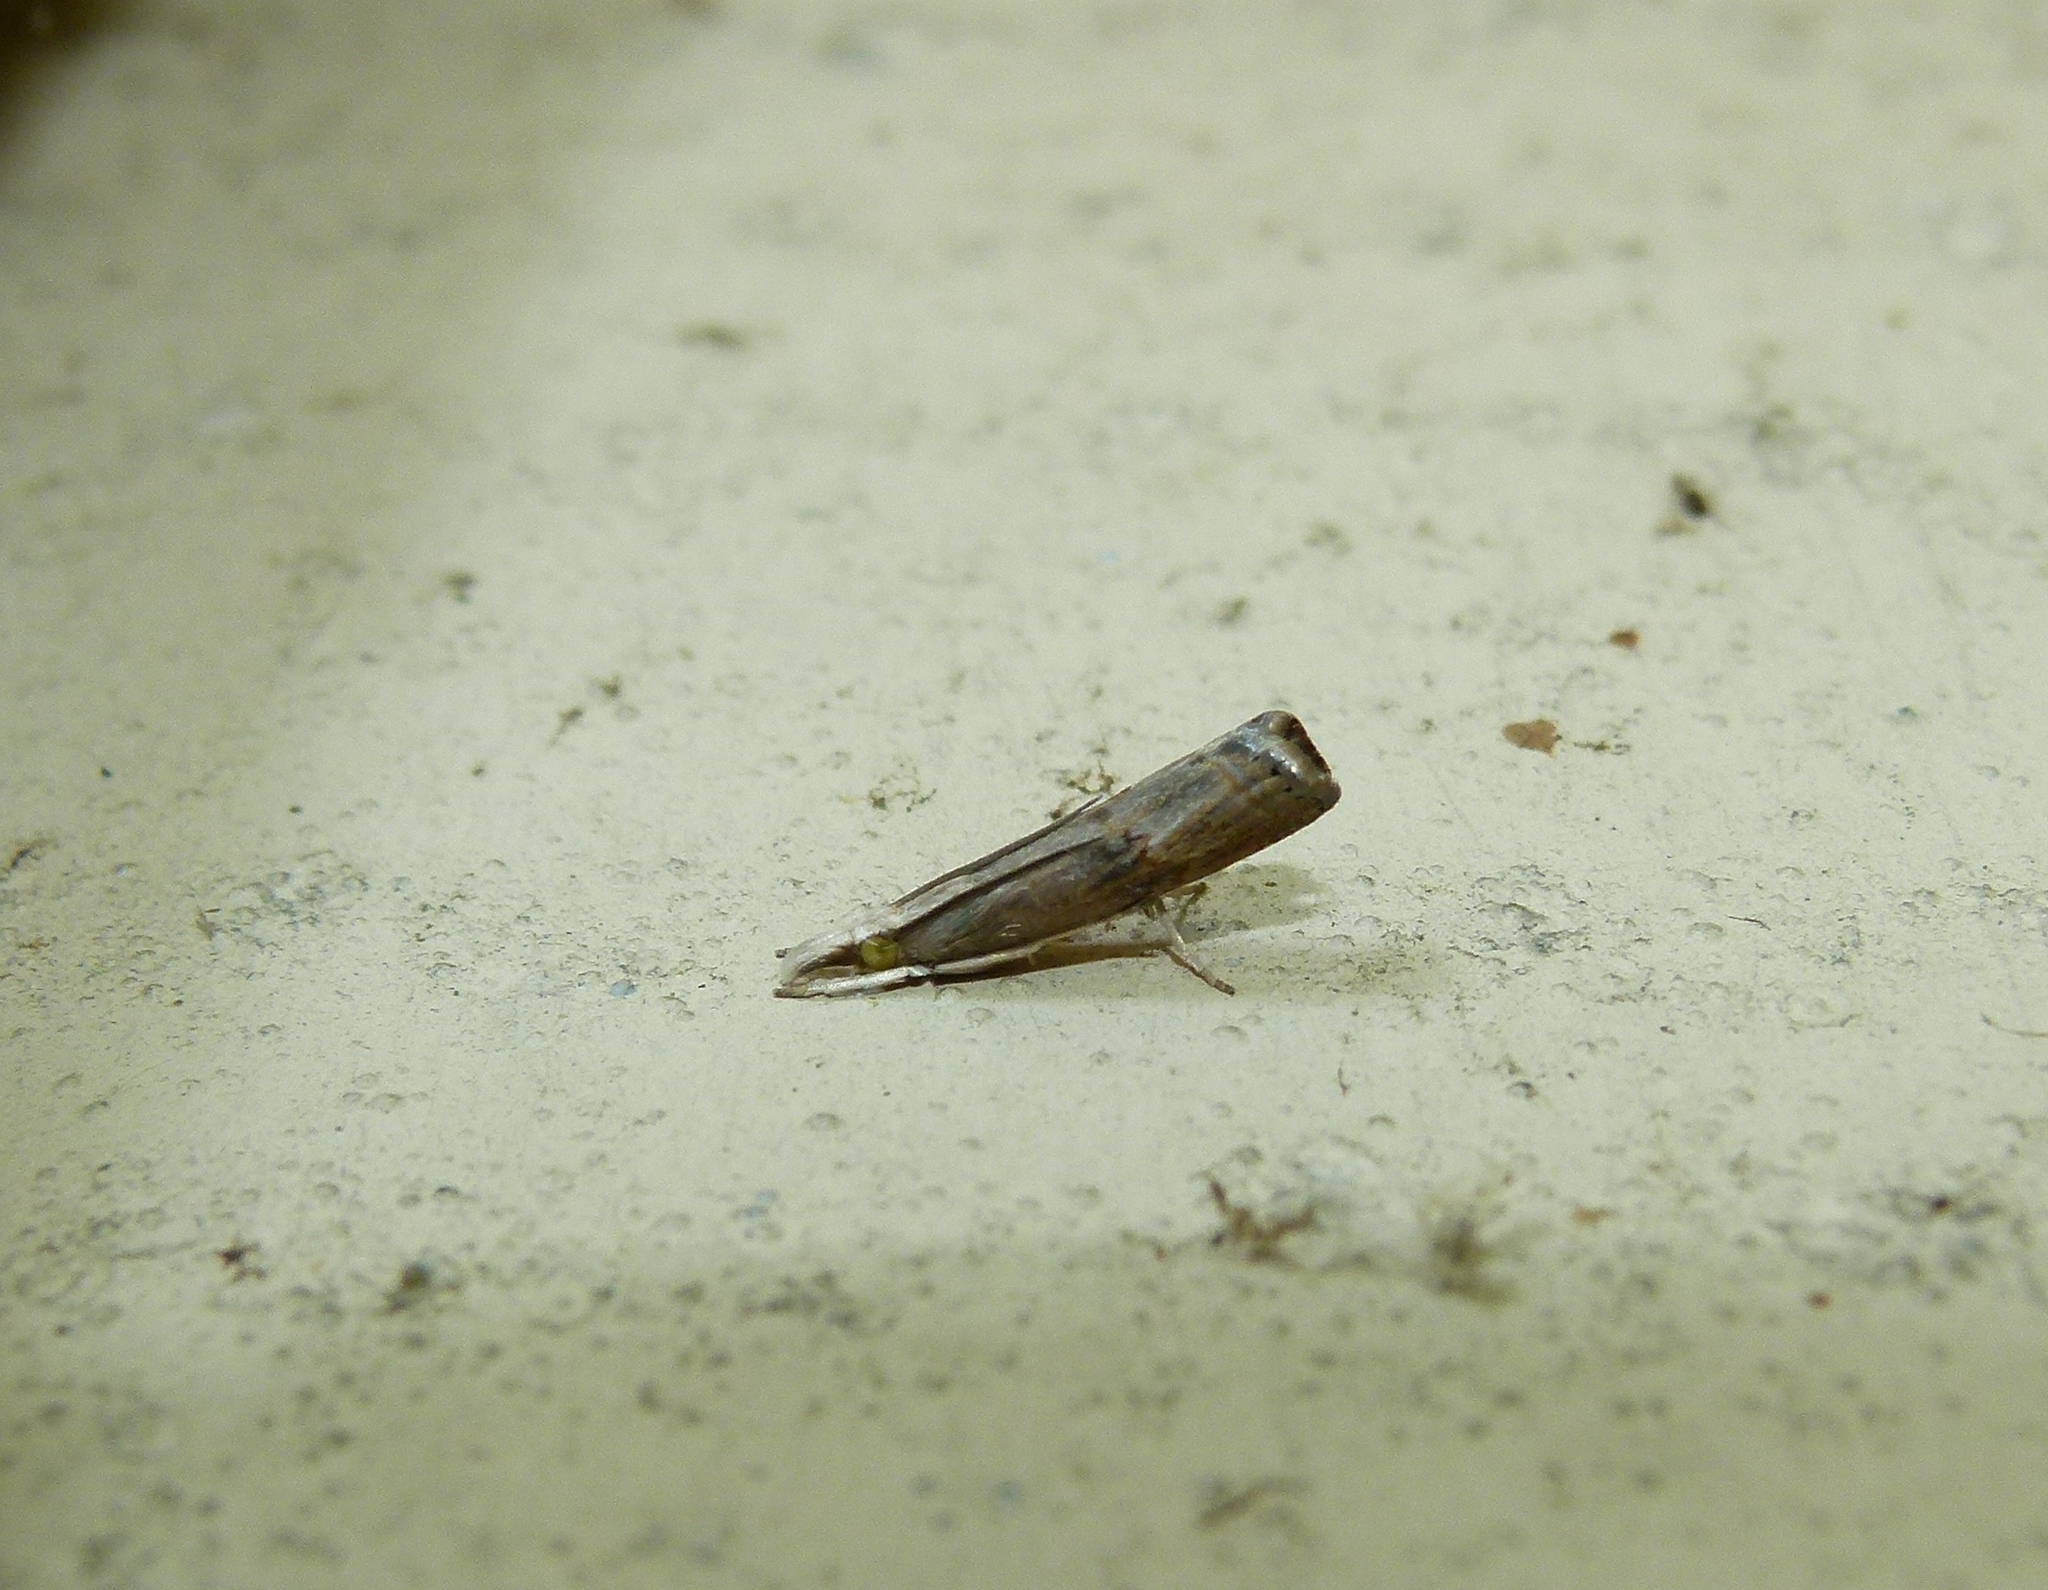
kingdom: Animalia
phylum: Arthropoda
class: Insecta
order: Lepidoptera
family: Crambidae
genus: Parapediasia
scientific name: Parapediasia teterellus
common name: Bluegrass webworm moth
